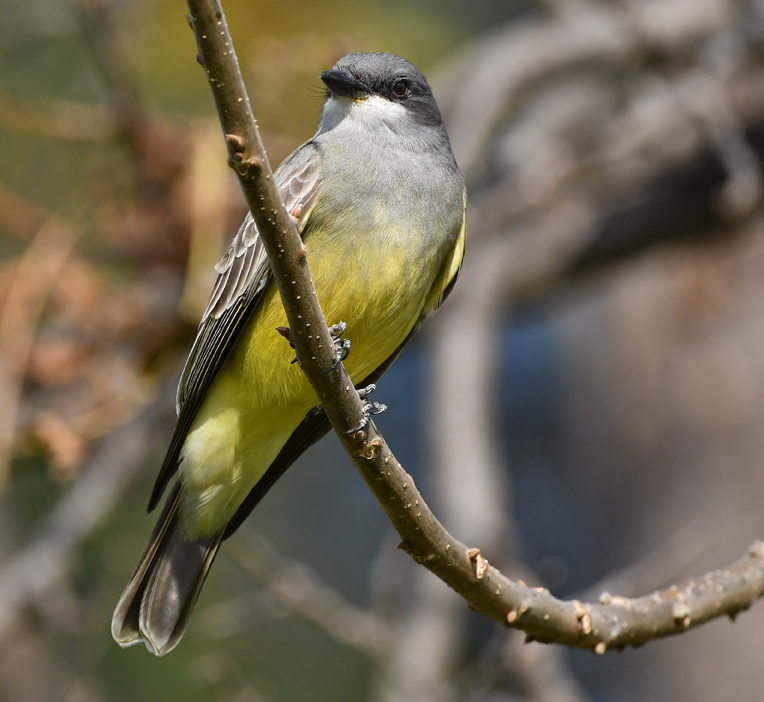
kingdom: Animalia
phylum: Chordata
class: Aves
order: Passeriformes
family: Tyrannidae
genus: Tyrannus
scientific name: Tyrannus vociferans
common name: Cassin's kingbird
